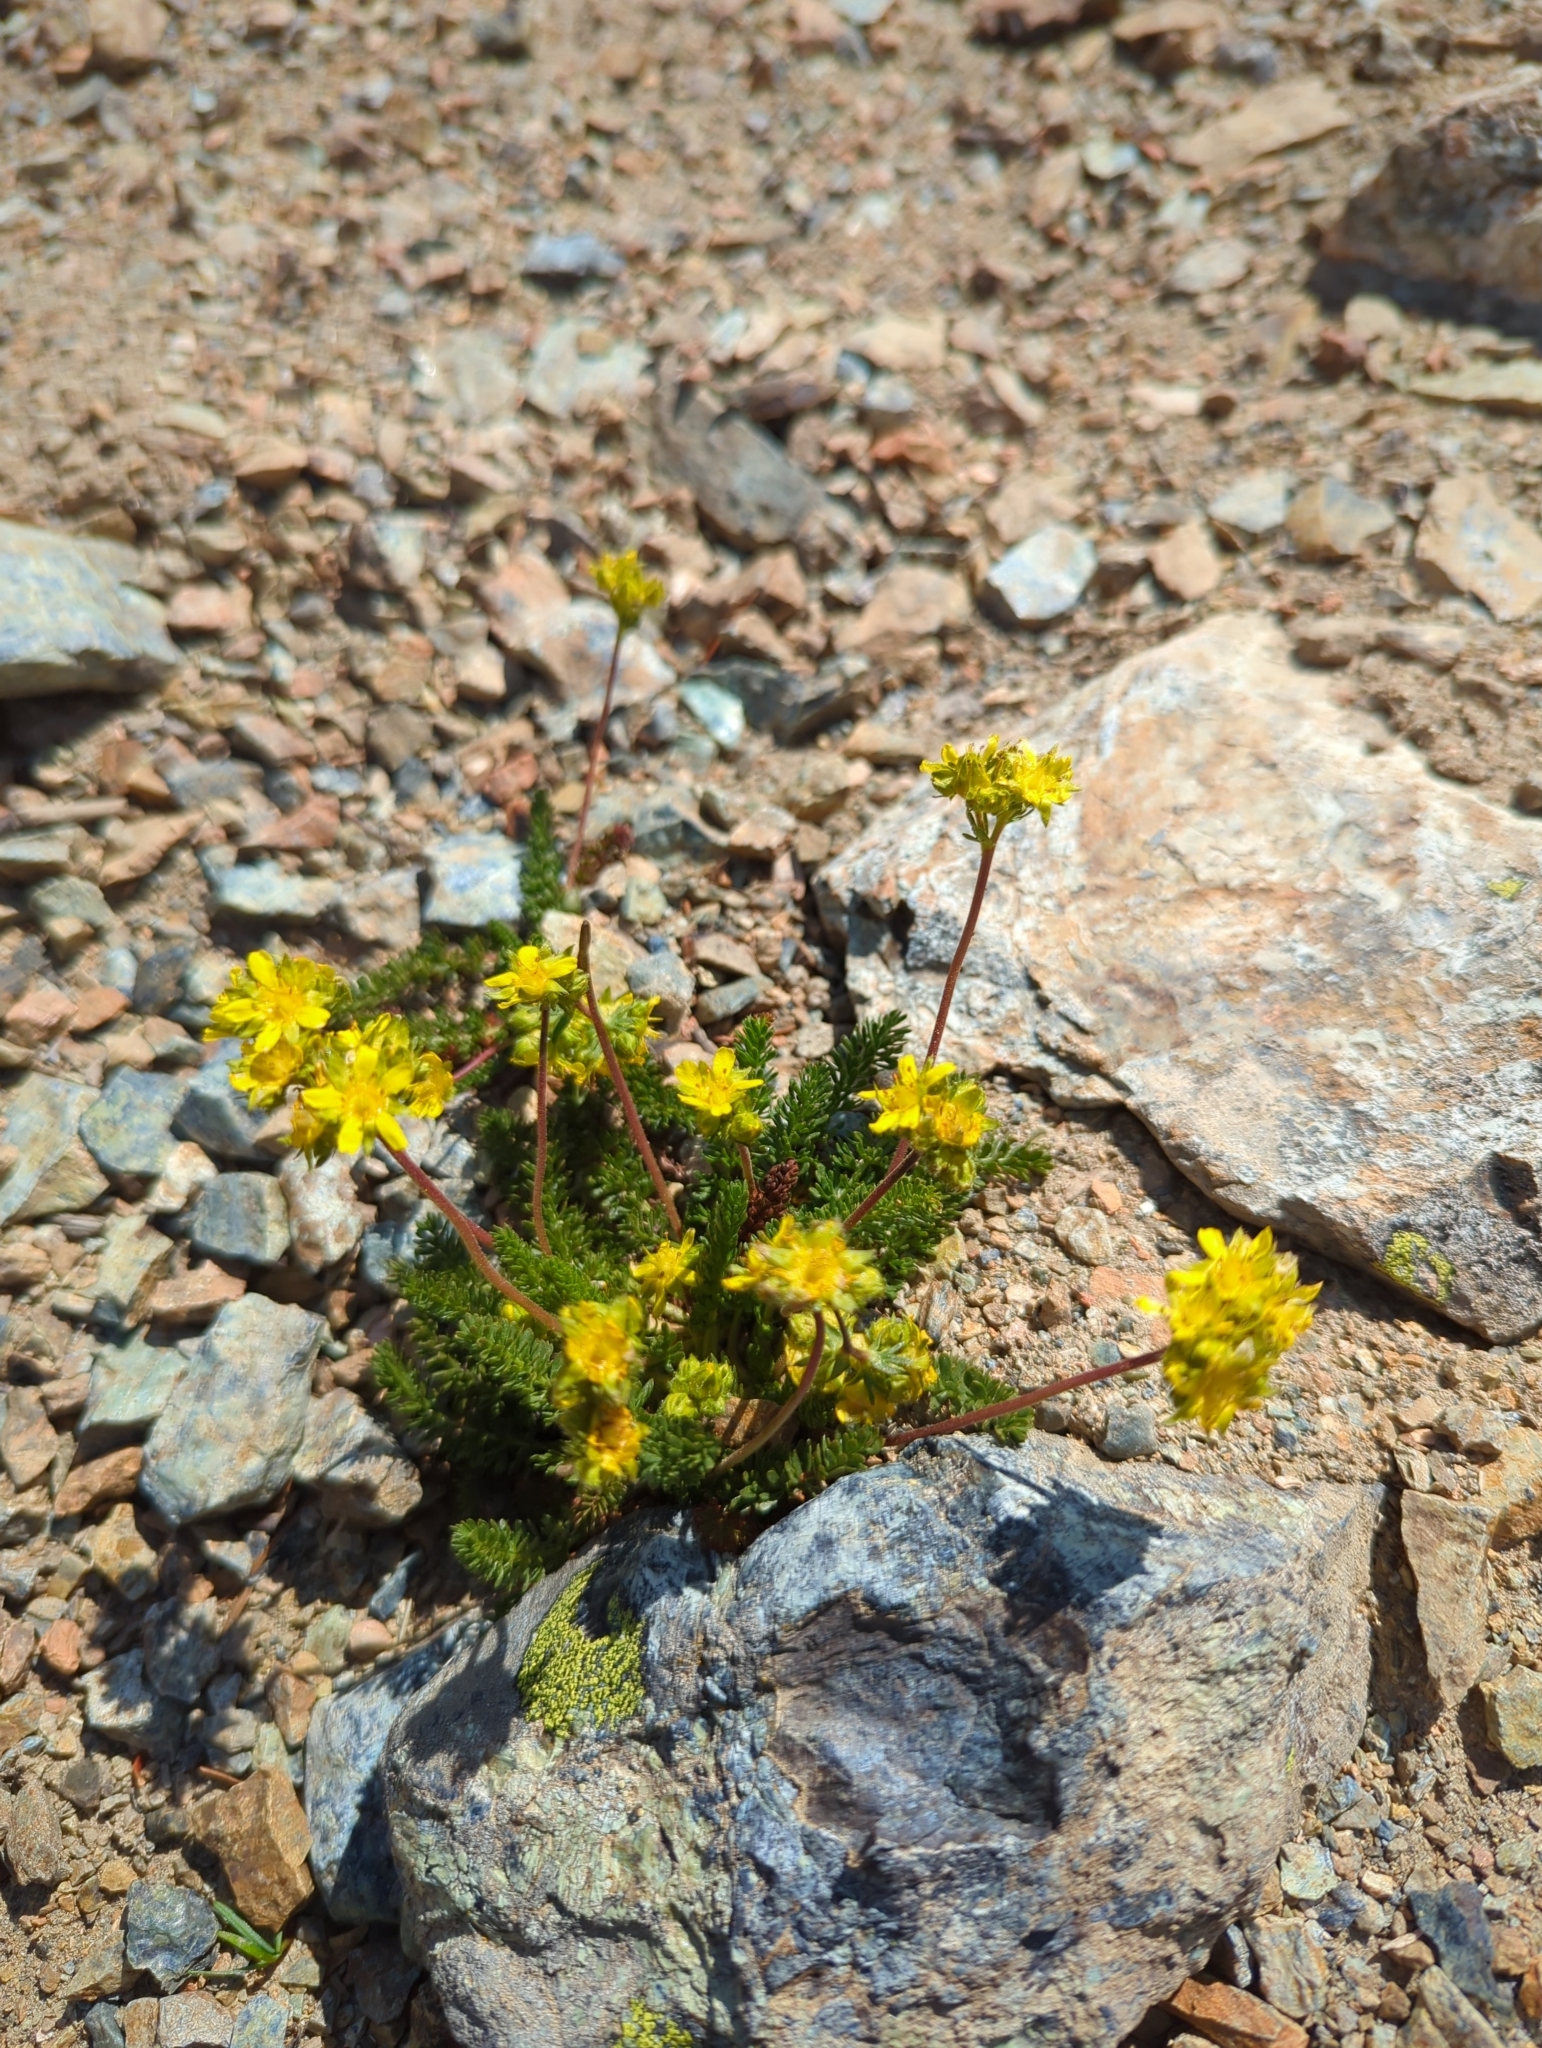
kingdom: Plantae
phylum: Tracheophyta
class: Magnoliopsida
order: Rosales
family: Rosaceae
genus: Potentilla
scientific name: Potentilla tweedyi
